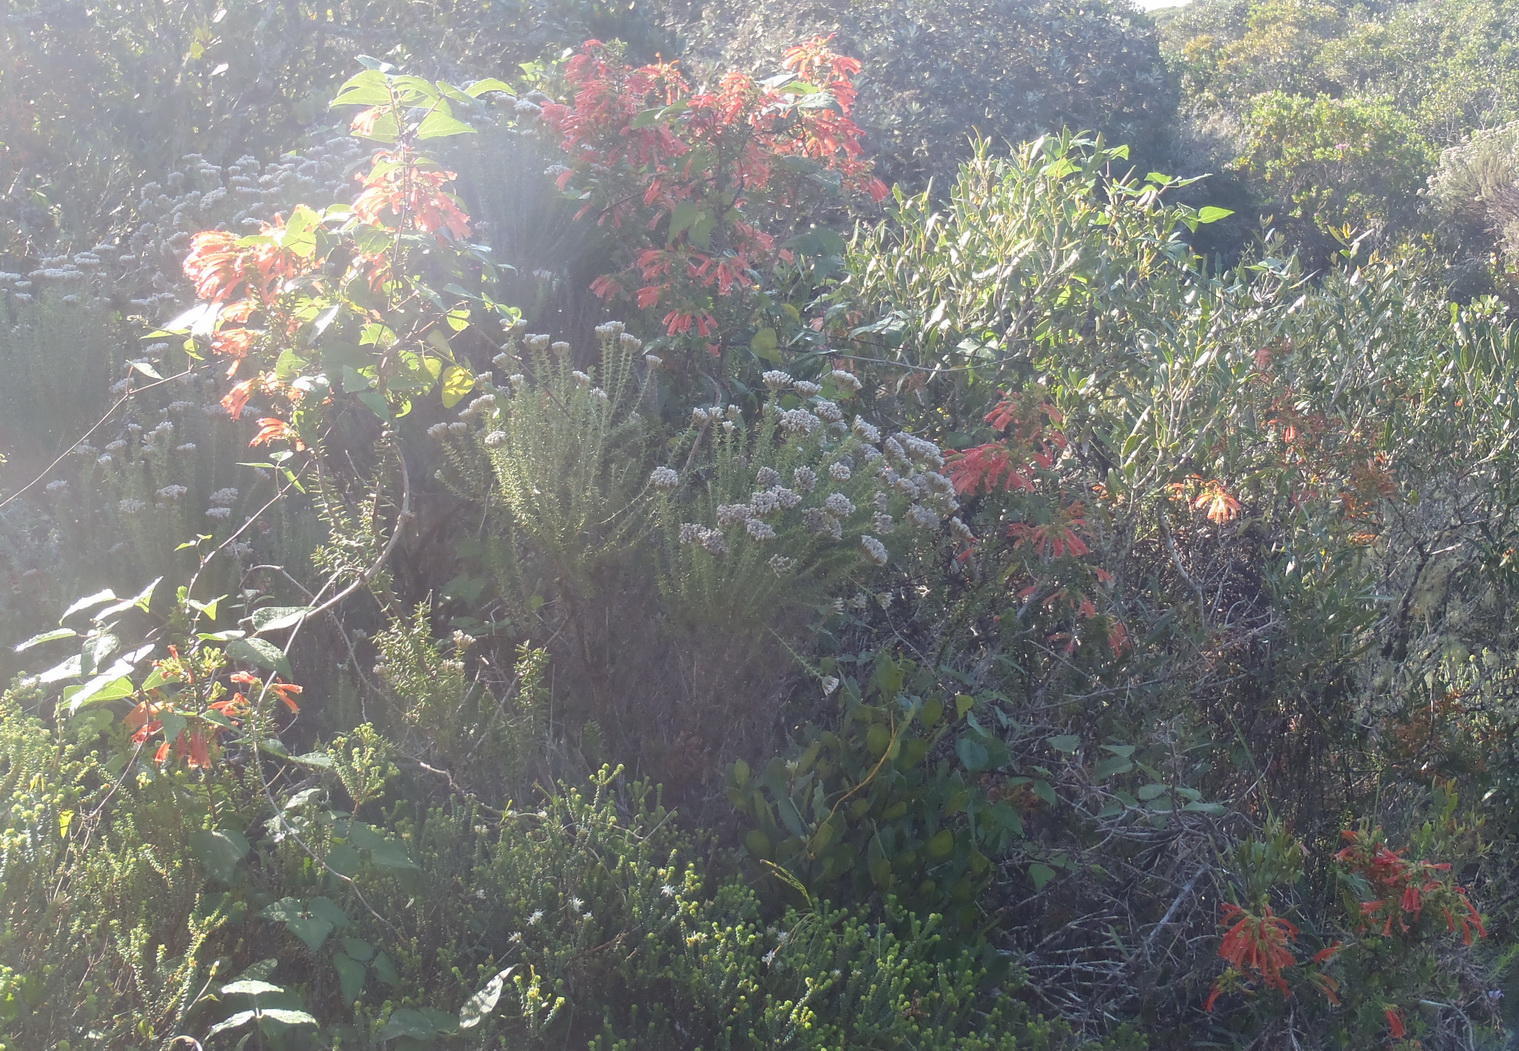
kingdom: Plantae
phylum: Tracheophyta
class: Magnoliopsida
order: Ericales
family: Ericaceae
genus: Erica
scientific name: Erica glandulosa
